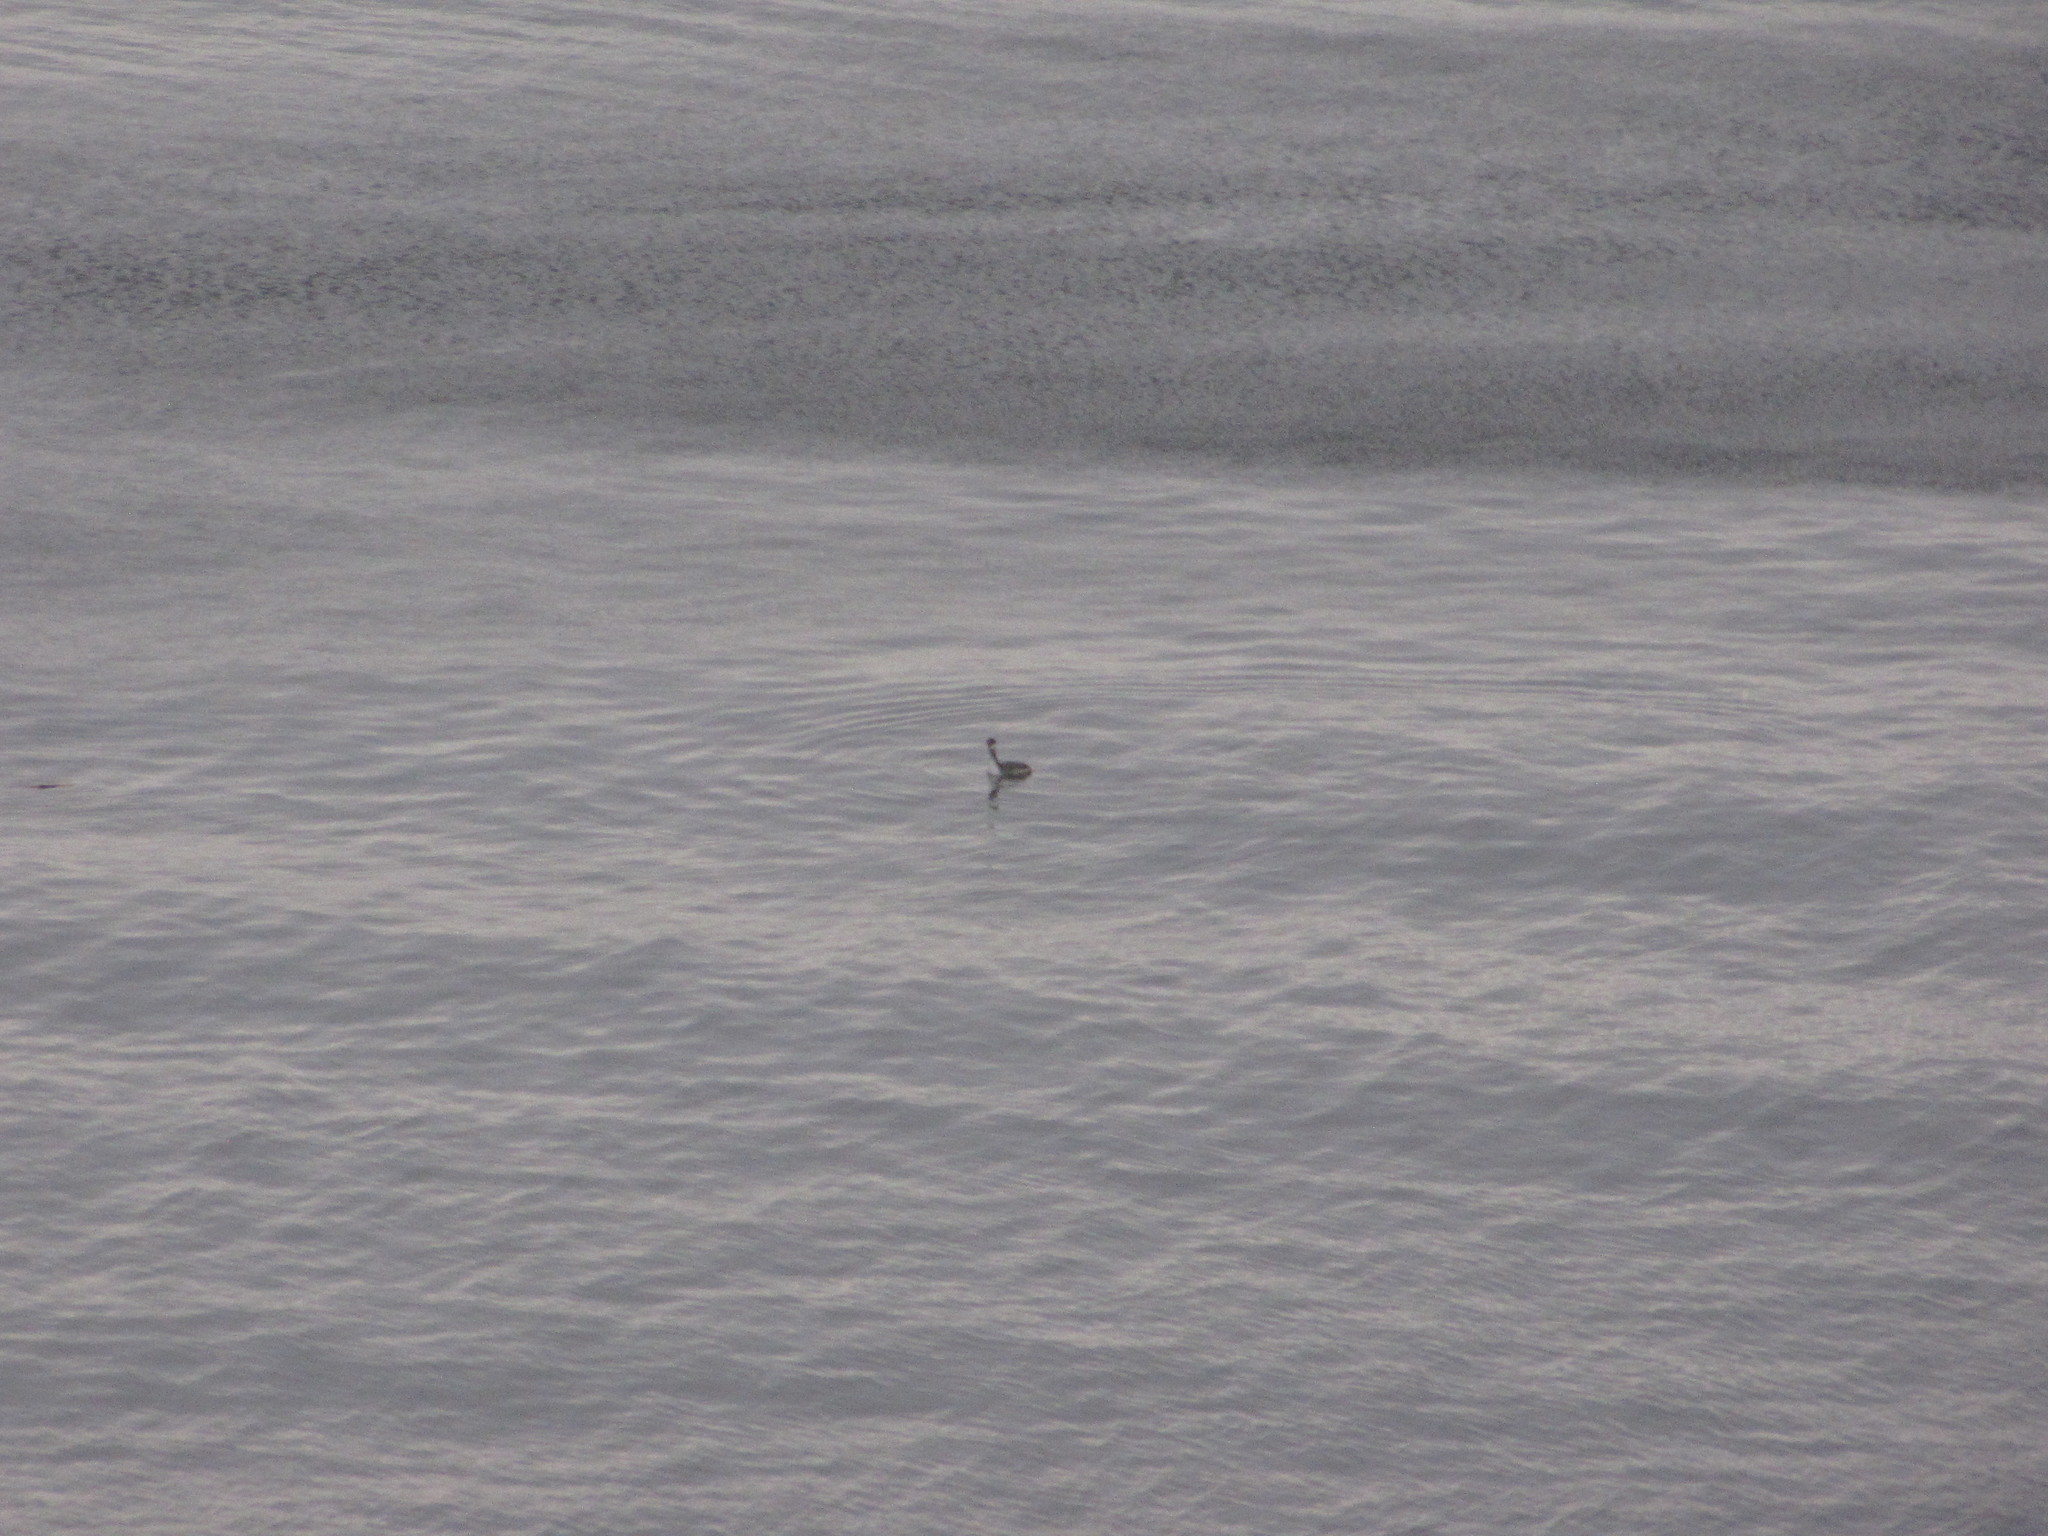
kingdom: Animalia
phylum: Chordata
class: Aves
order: Podicipediformes
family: Podicipedidae
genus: Podiceps
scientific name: Podiceps auritus
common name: Horned grebe
